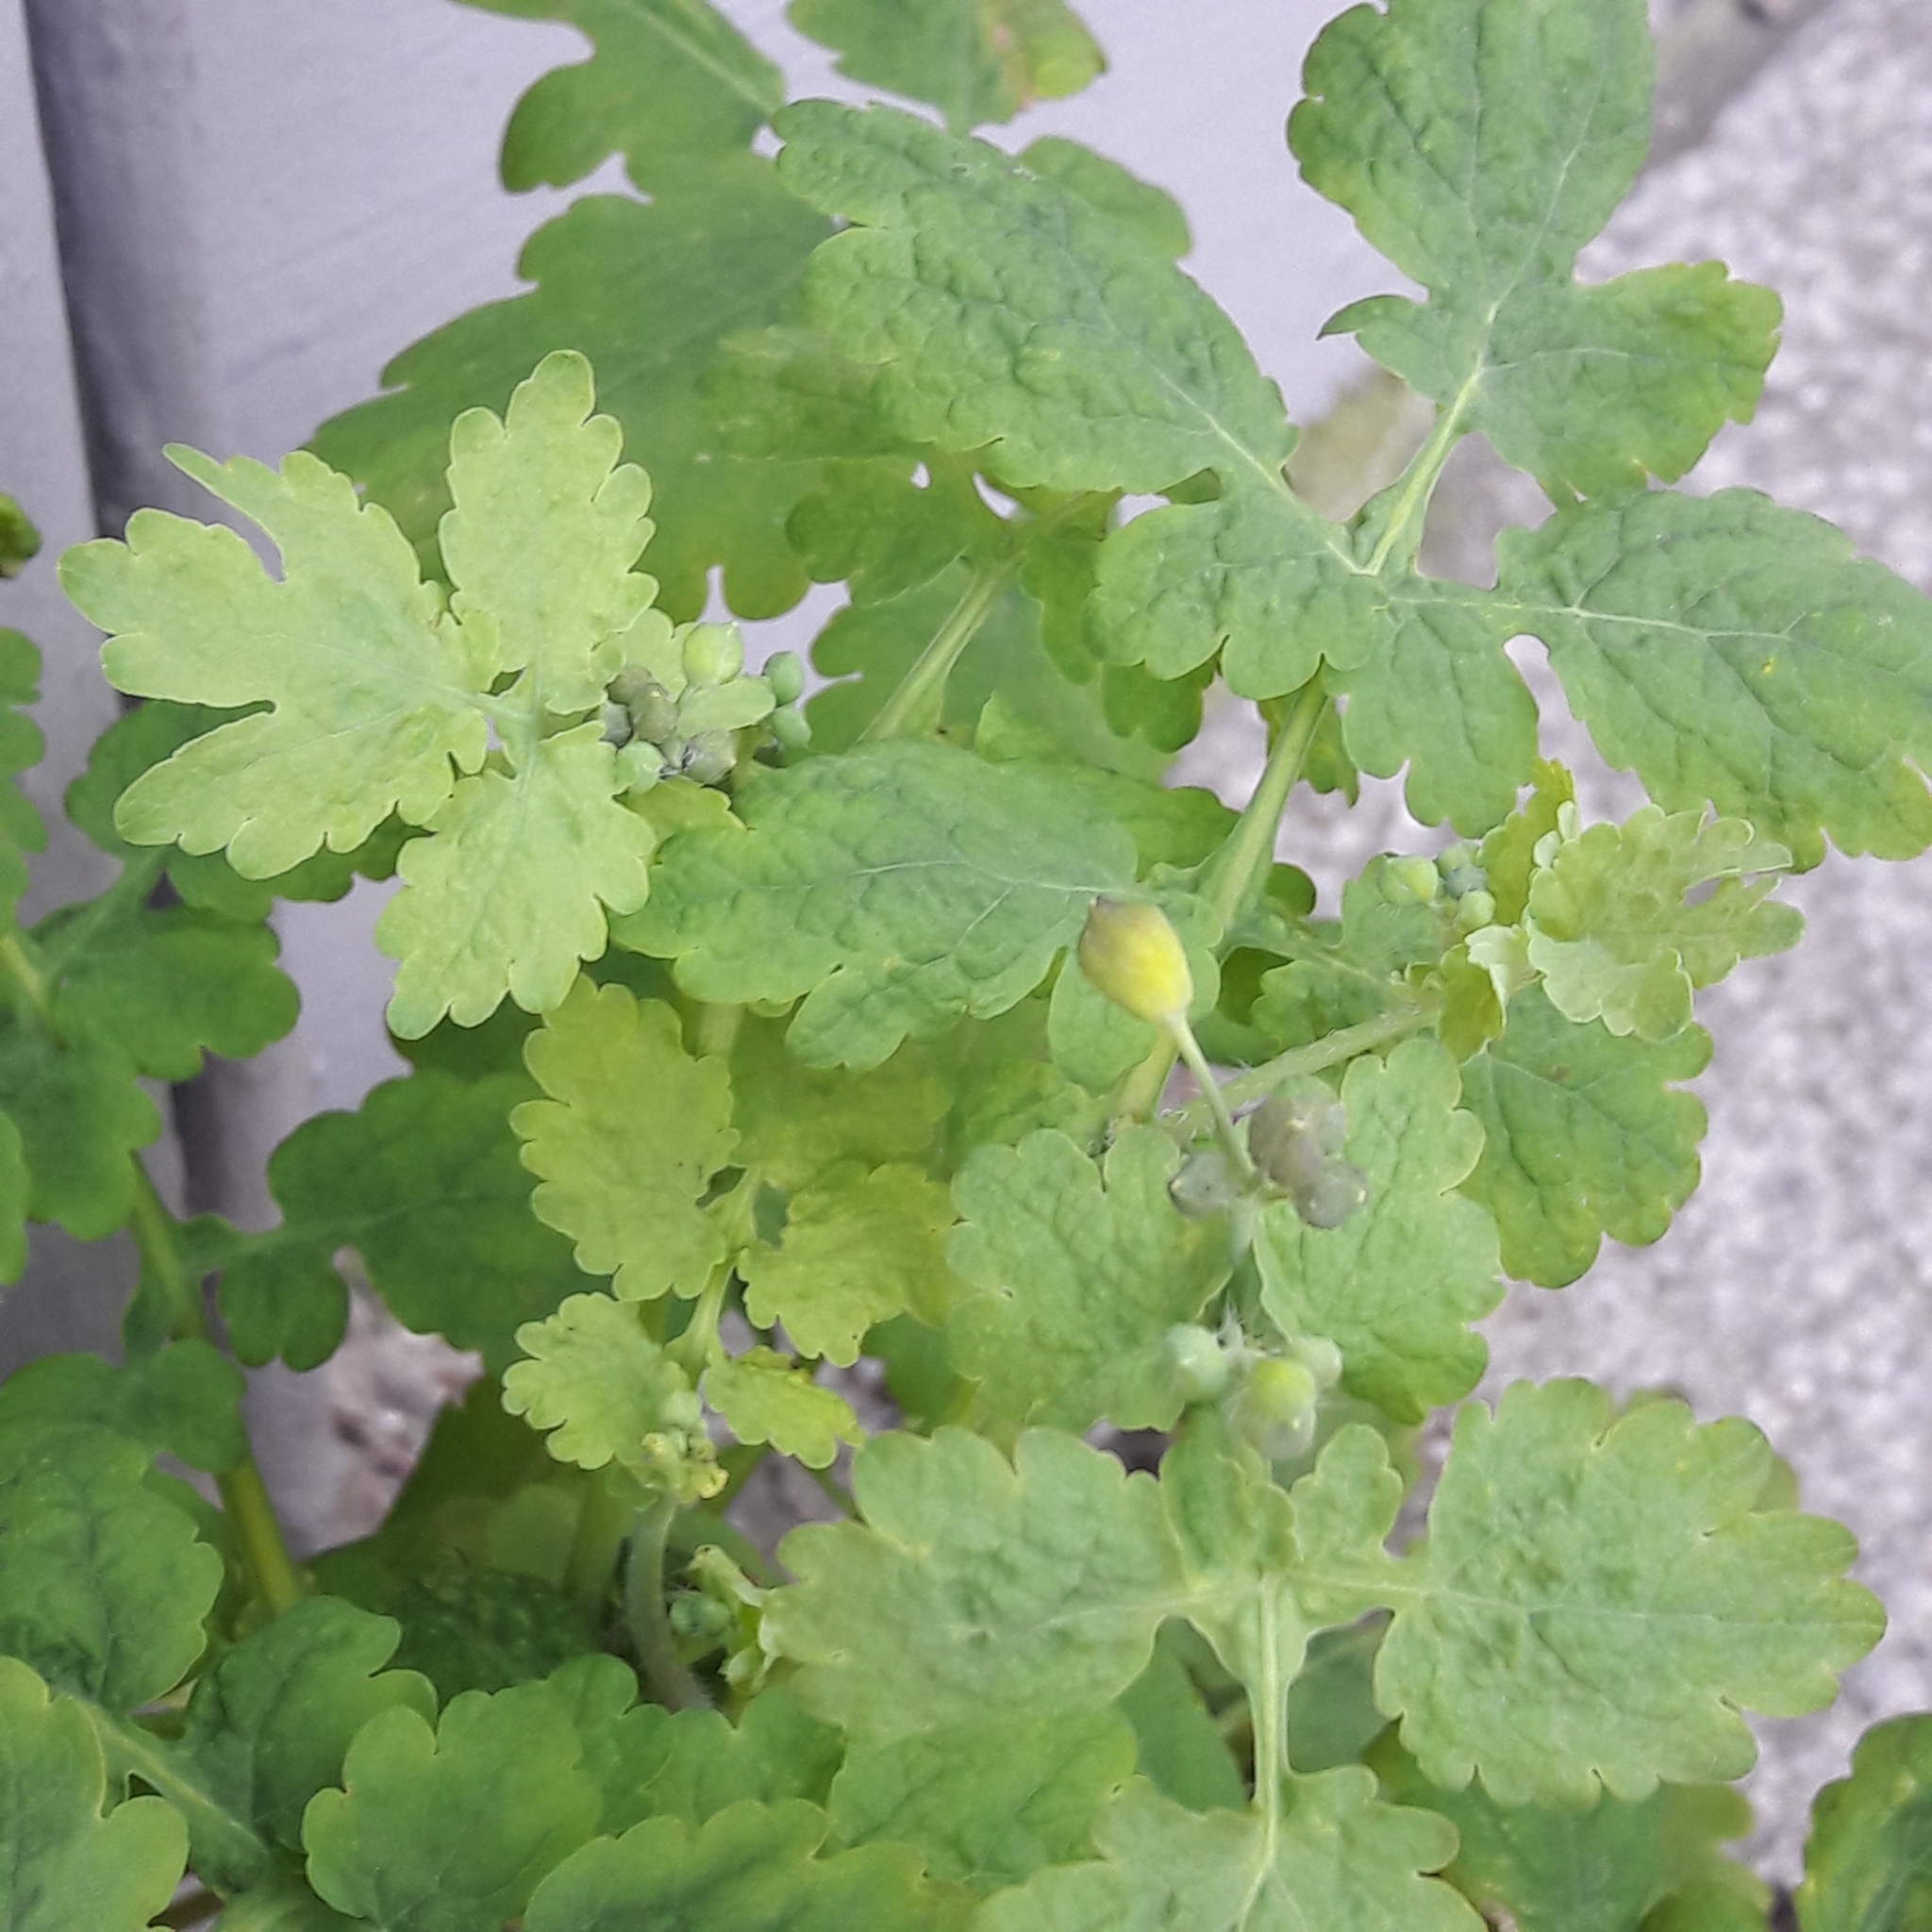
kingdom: Plantae
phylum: Tracheophyta
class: Magnoliopsida
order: Ranunculales
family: Papaveraceae
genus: Chelidonium
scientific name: Chelidonium majus
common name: Greater celandine
